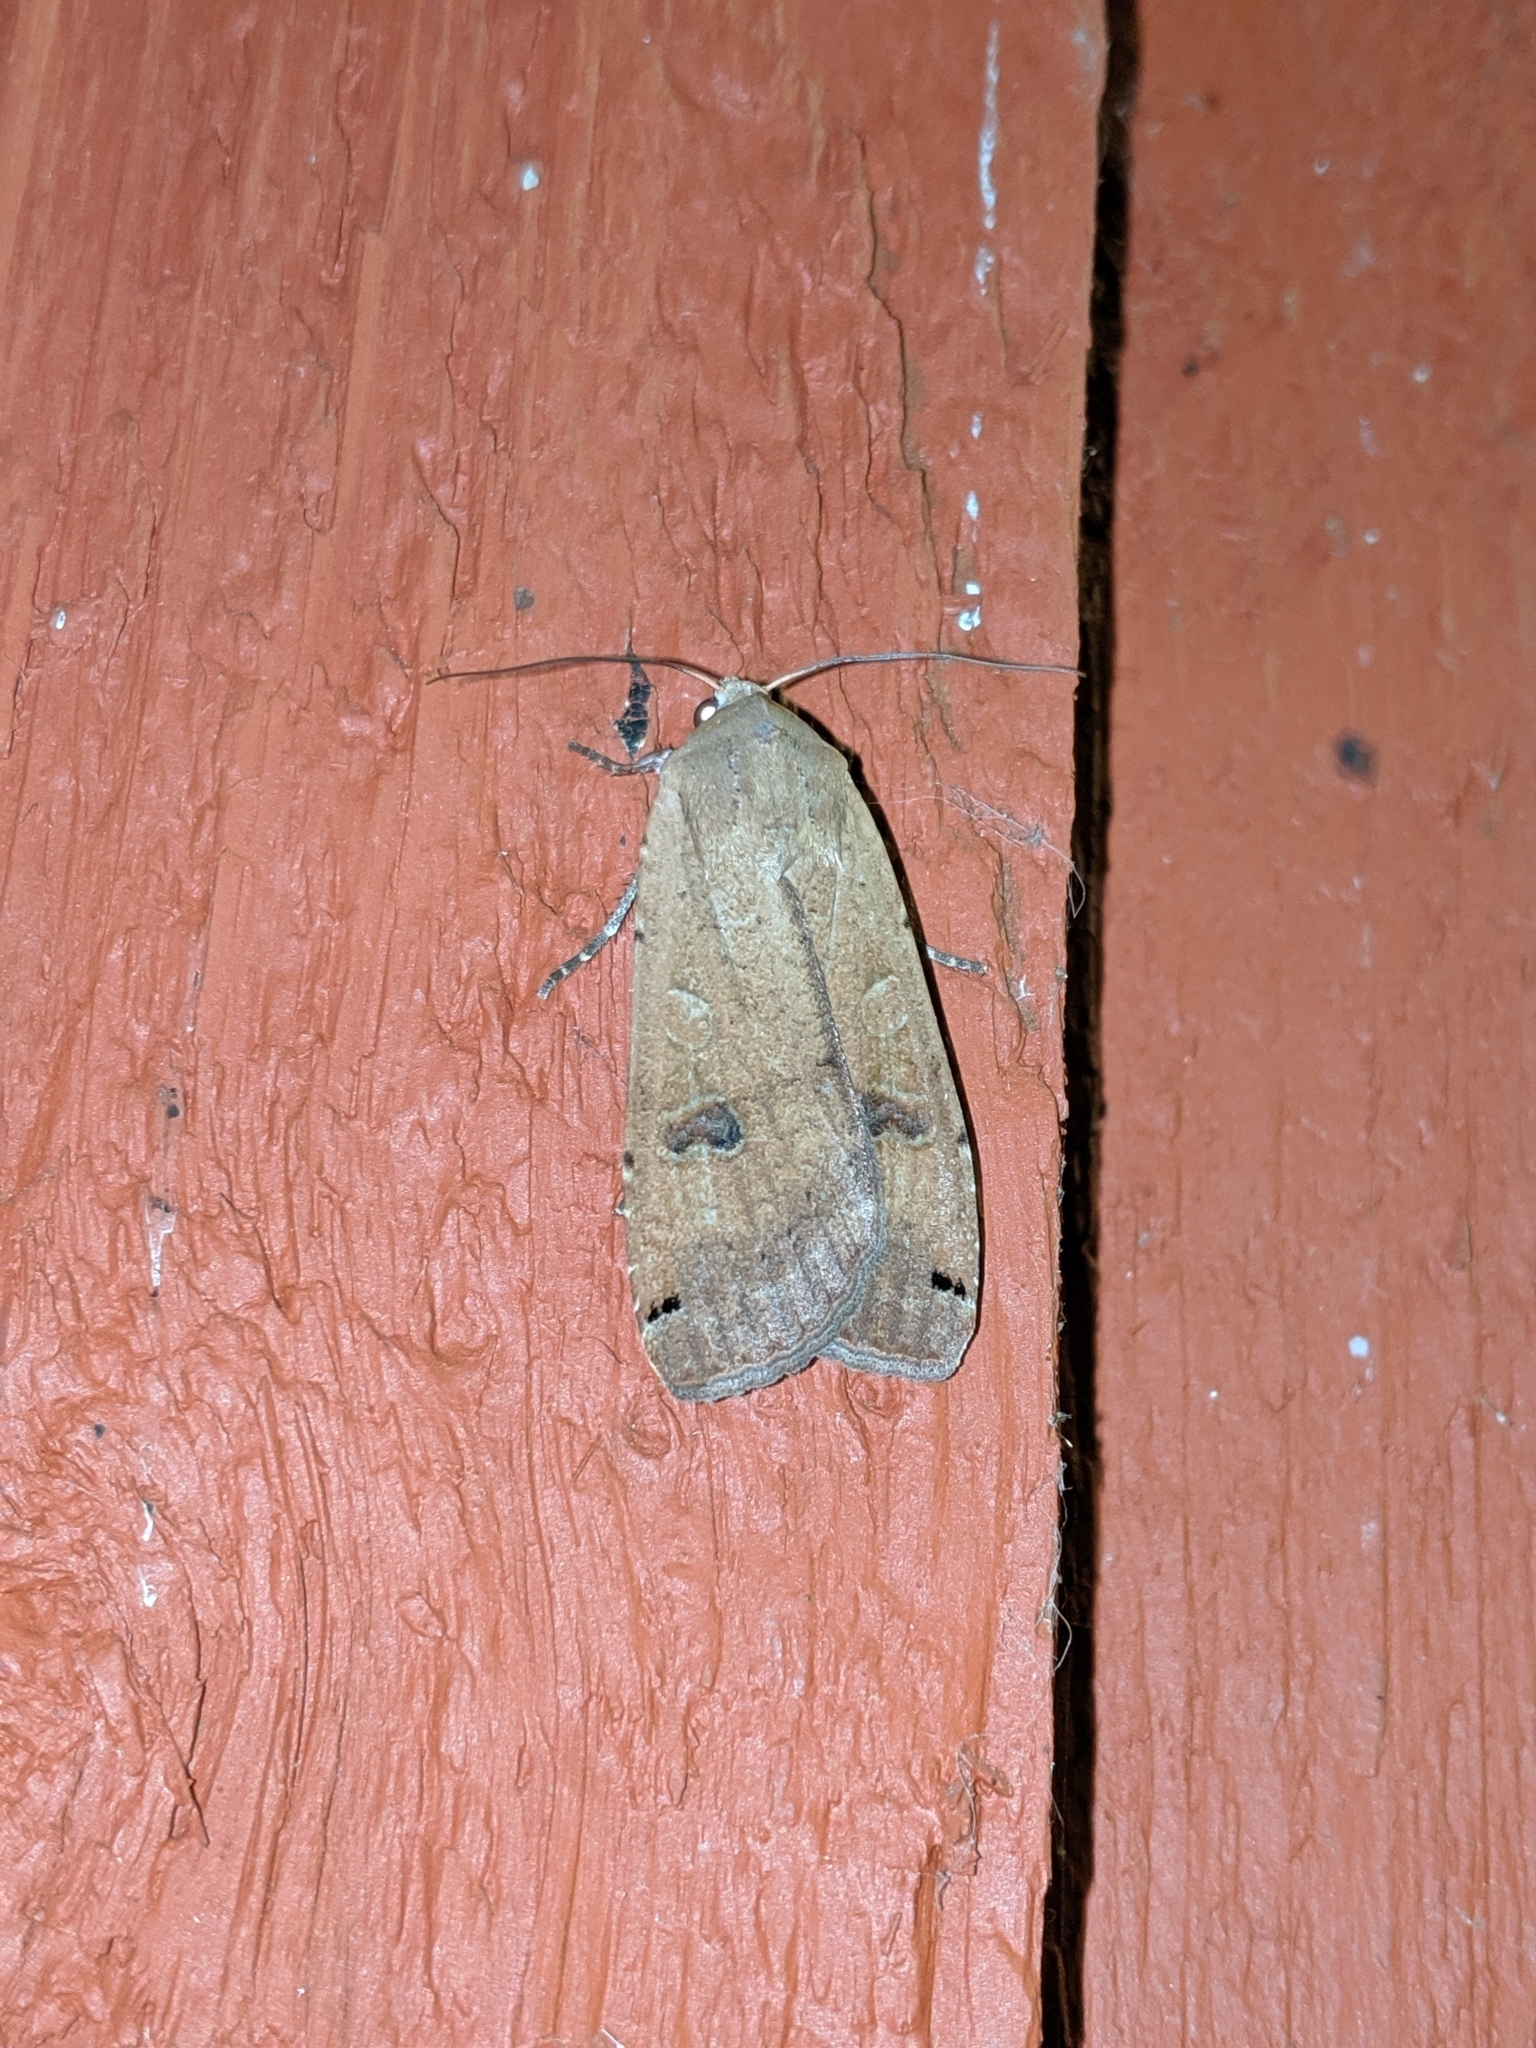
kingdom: Animalia
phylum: Arthropoda
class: Insecta
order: Lepidoptera
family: Noctuidae
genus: Noctua
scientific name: Noctua pronuba
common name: Large yellow underwing
